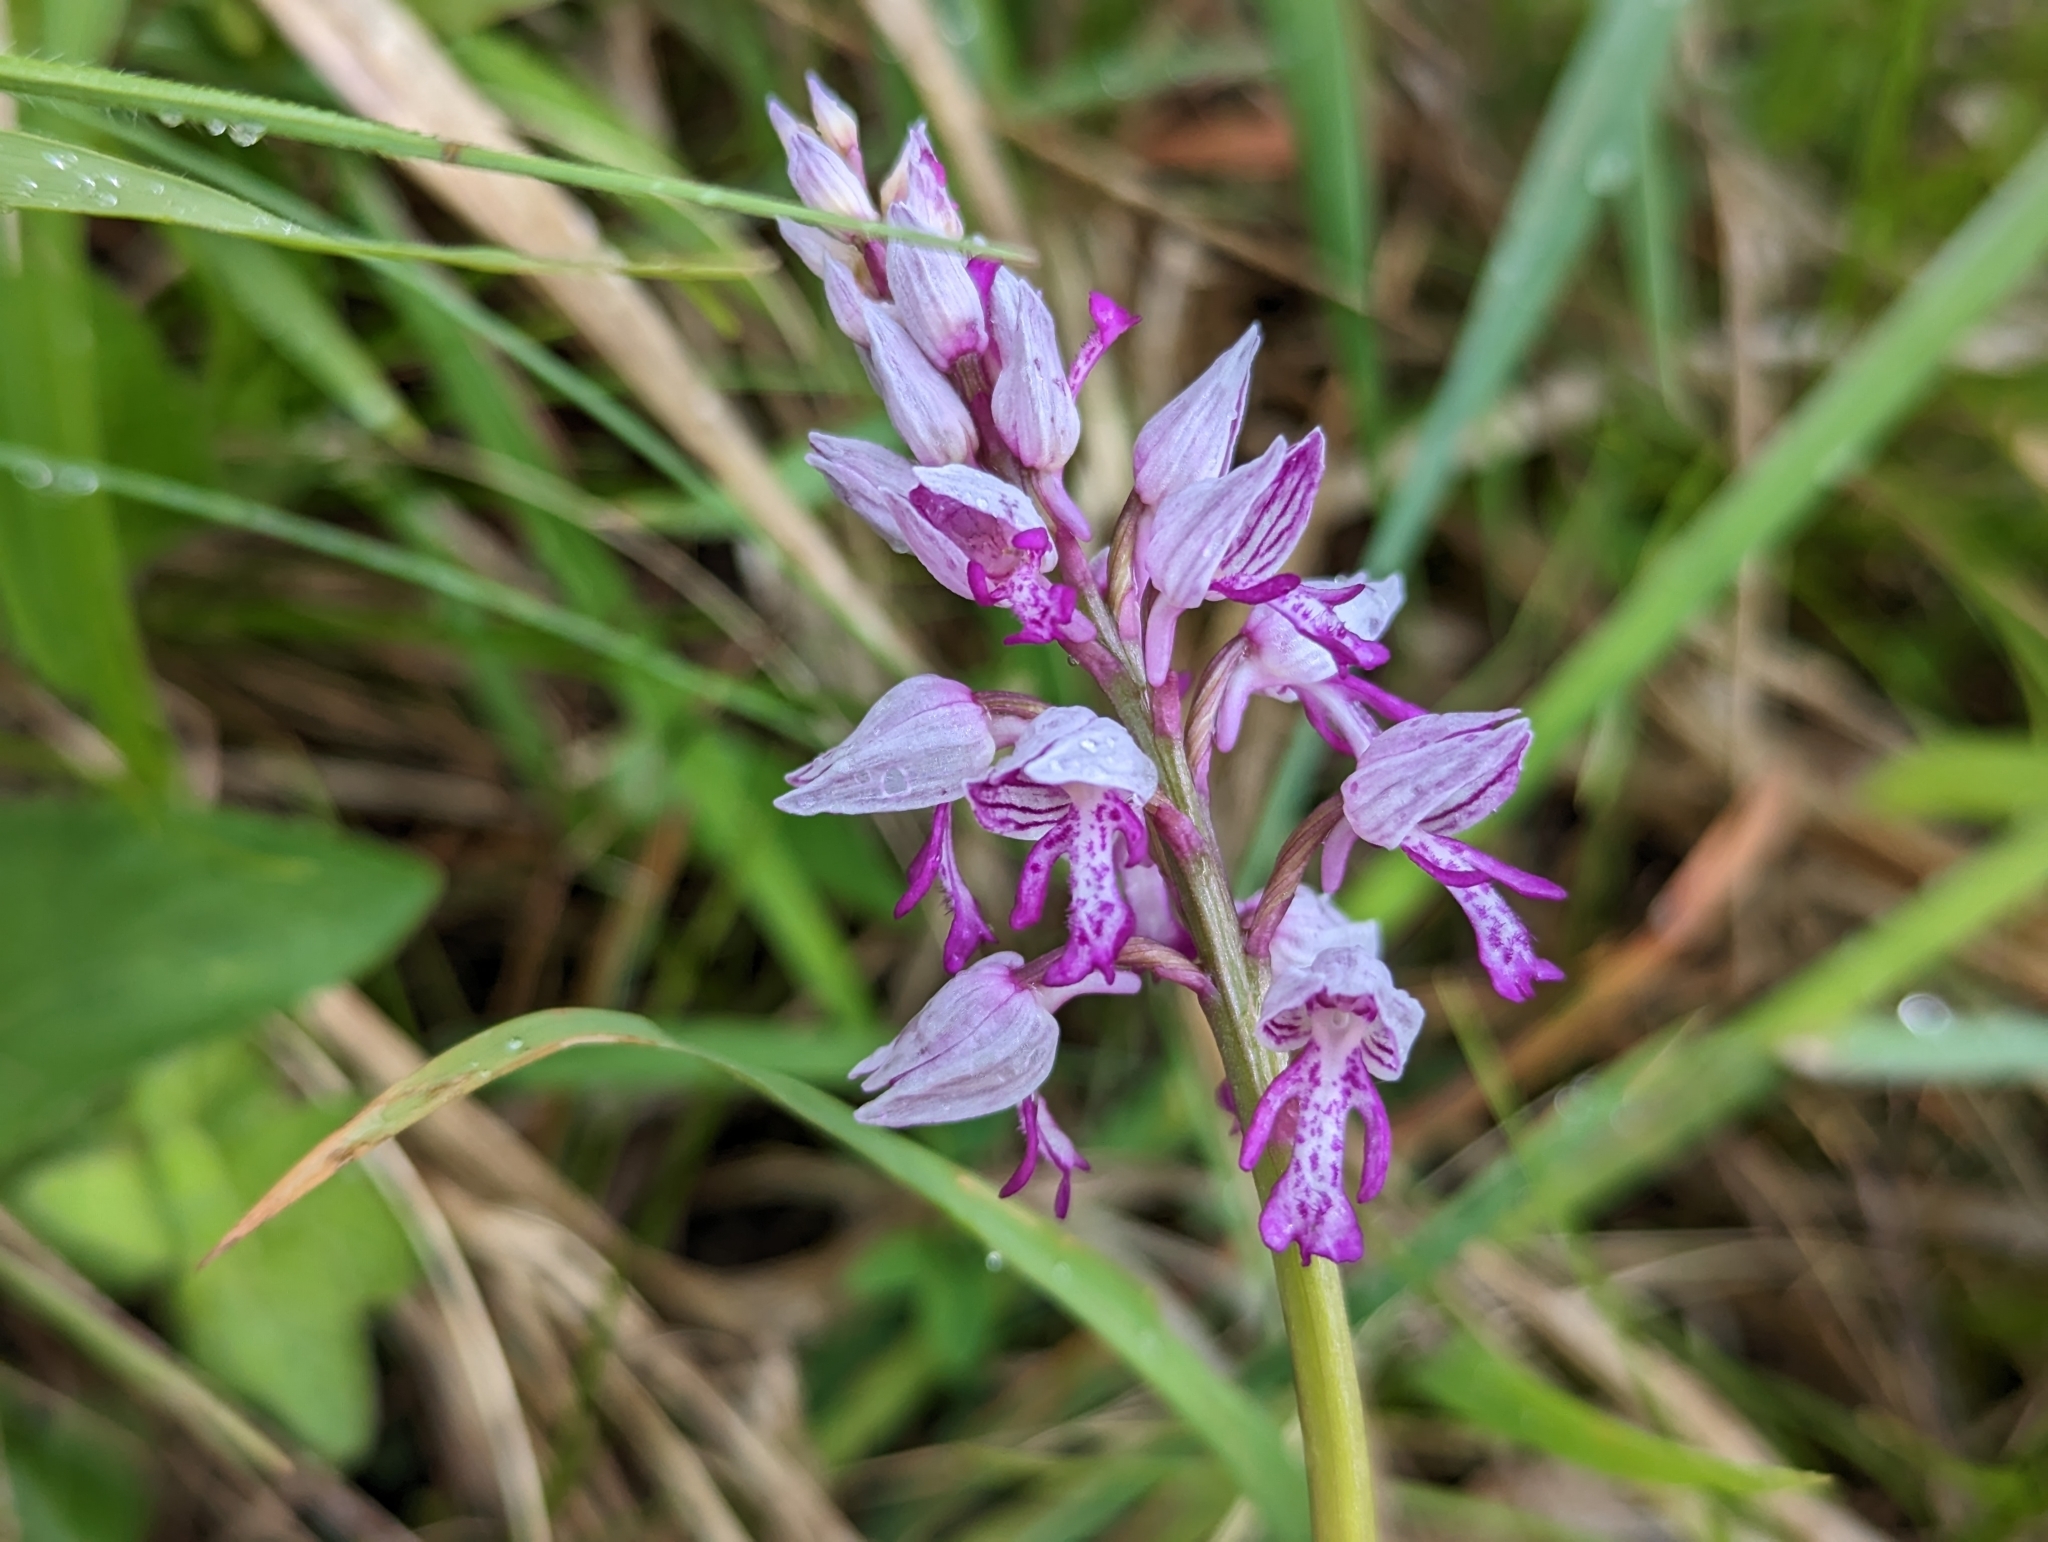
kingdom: Plantae
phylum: Tracheophyta
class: Liliopsida
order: Asparagales
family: Orchidaceae
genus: Orchis
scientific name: Orchis militaris
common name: Military orchid
